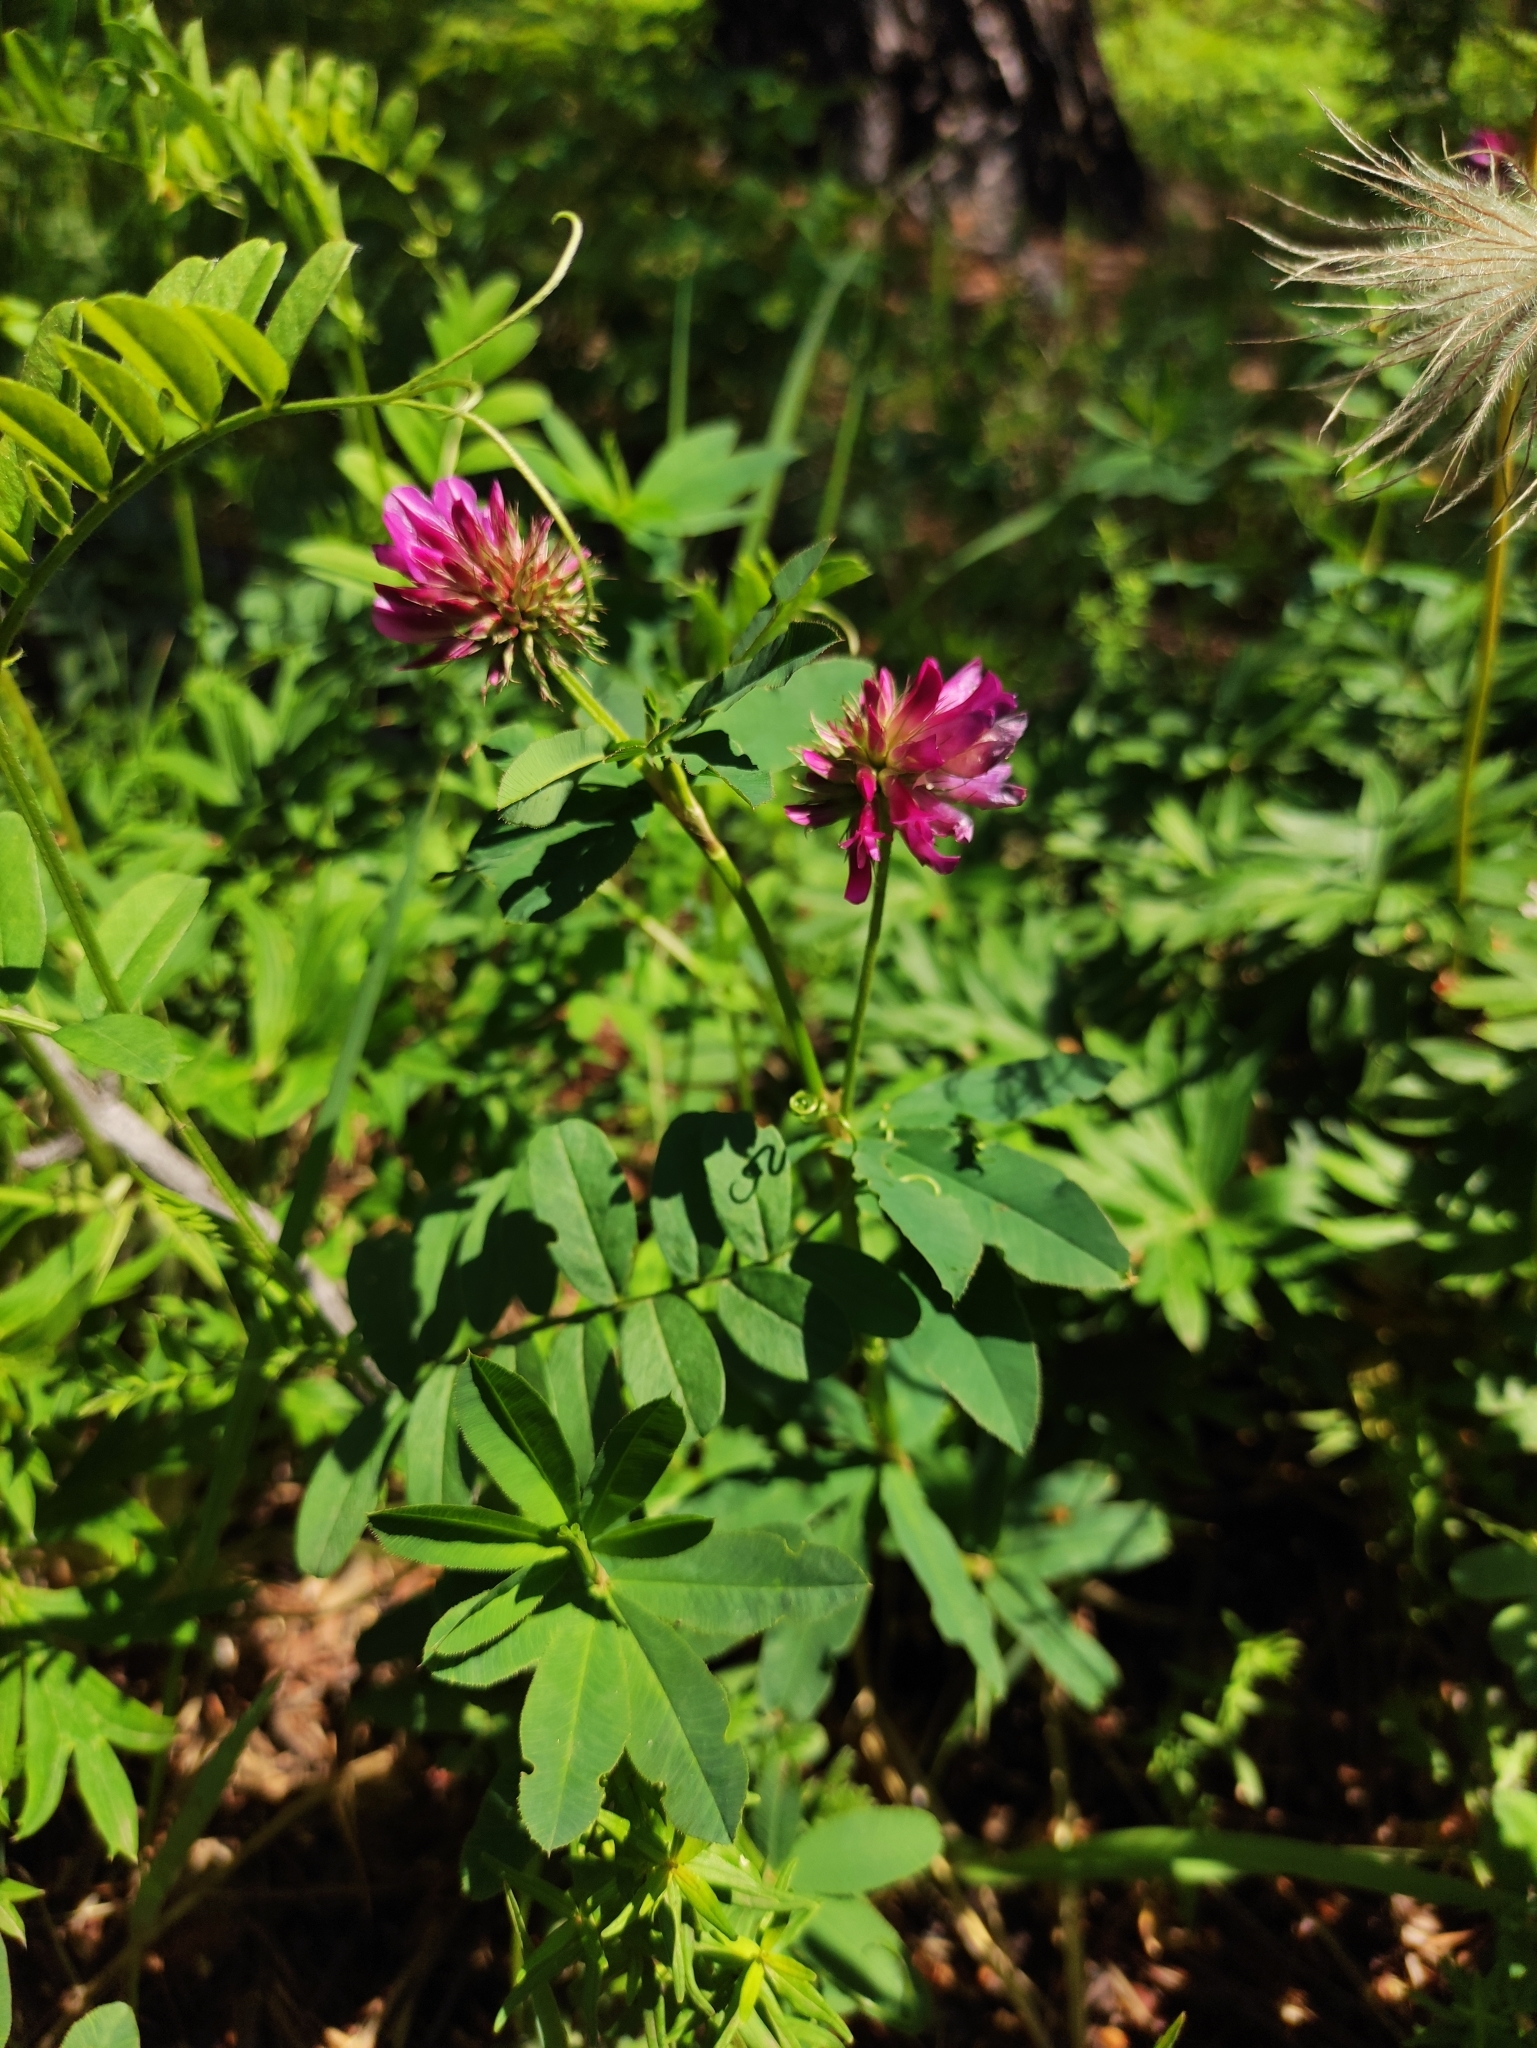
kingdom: Plantae
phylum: Tracheophyta
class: Magnoliopsida
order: Fabales
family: Fabaceae
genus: Trifolium
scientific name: Trifolium lupinaster
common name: Lupine clover
